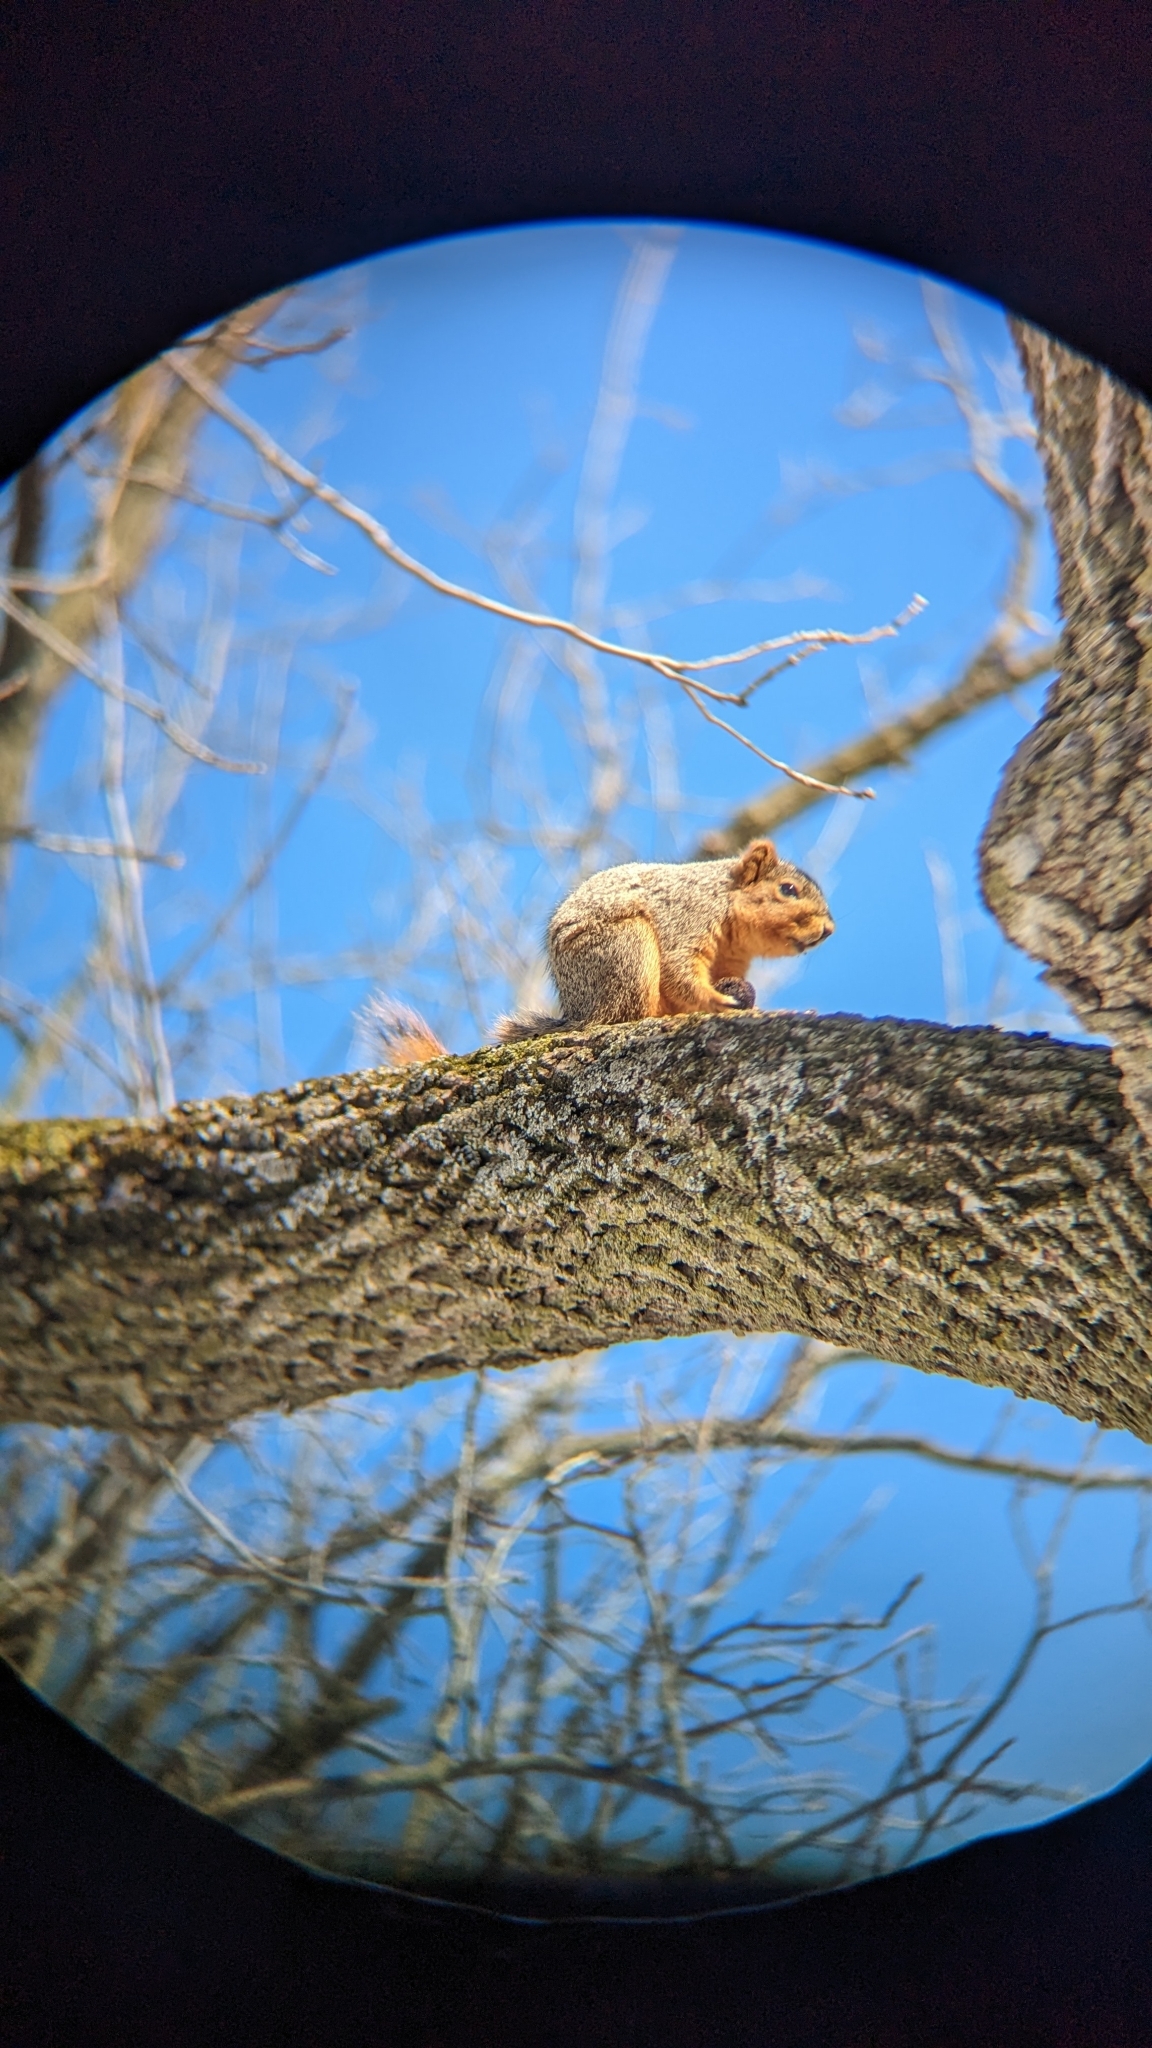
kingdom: Animalia
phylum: Chordata
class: Mammalia
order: Rodentia
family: Sciuridae
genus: Sciurus
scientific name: Sciurus niger
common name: Fox squirrel
